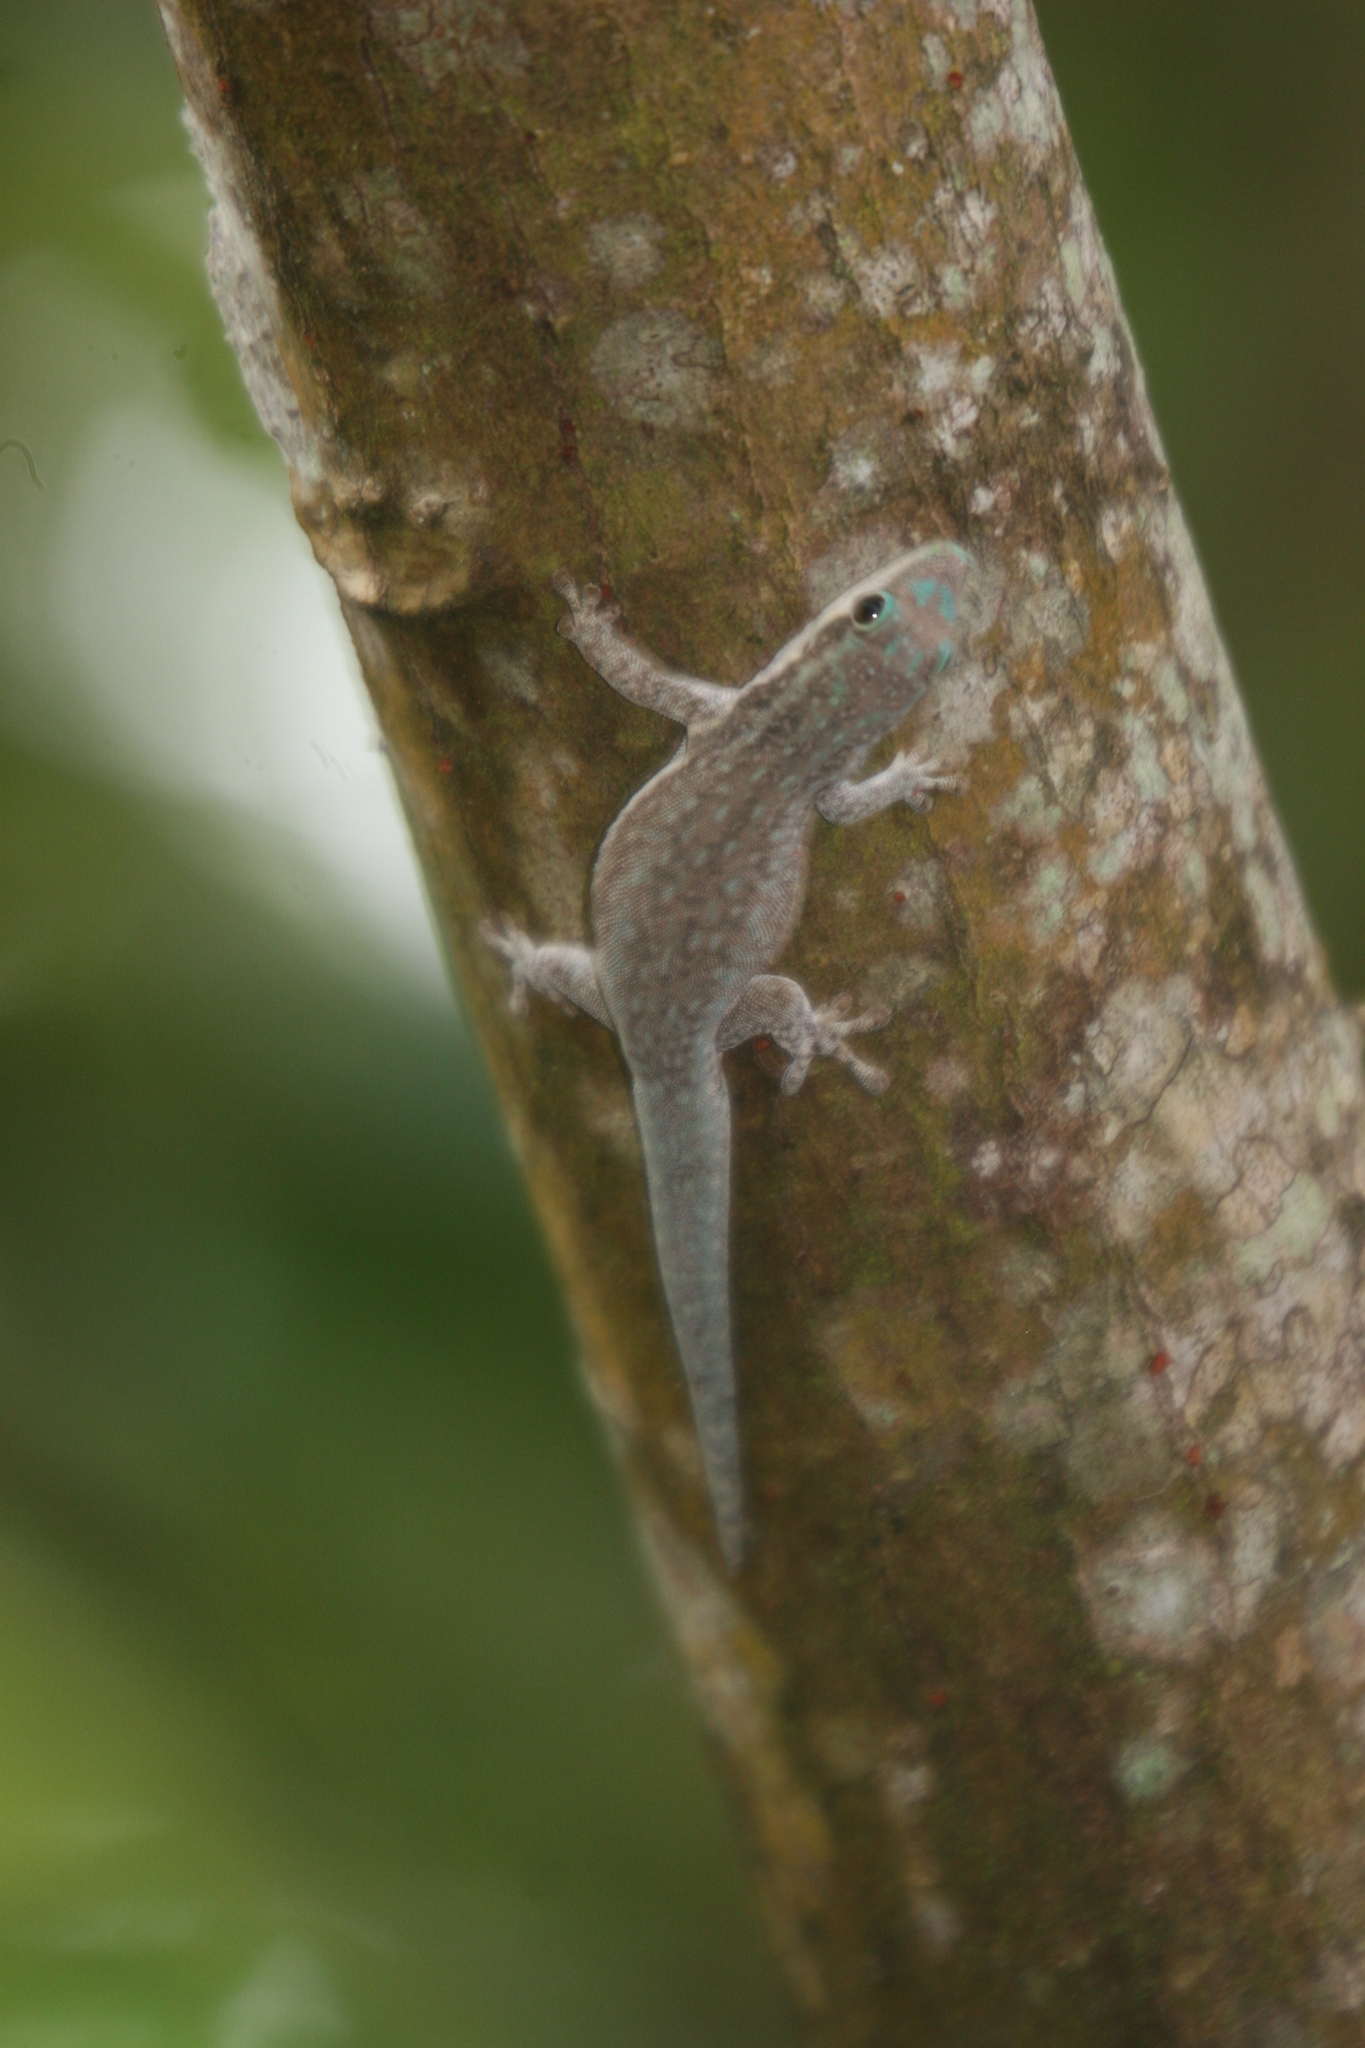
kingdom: Animalia
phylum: Chordata
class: Squamata
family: Gekkonidae
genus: Phelsuma
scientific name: Phelsuma modesta
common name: Modest day gecko
